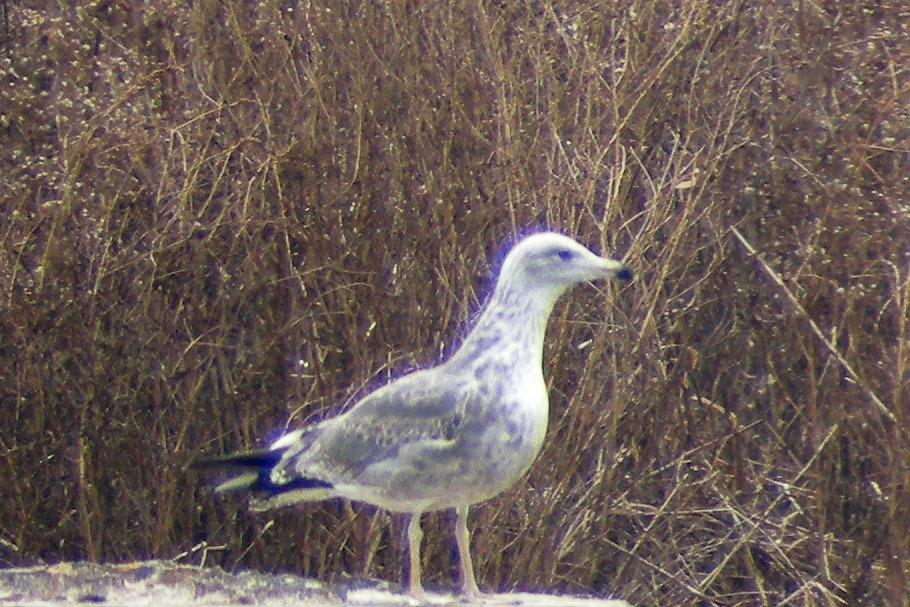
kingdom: Animalia
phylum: Chordata
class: Aves
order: Charadriiformes
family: Laridae
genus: Larus
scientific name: Larus fuscus
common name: Lesser black-backed gull
